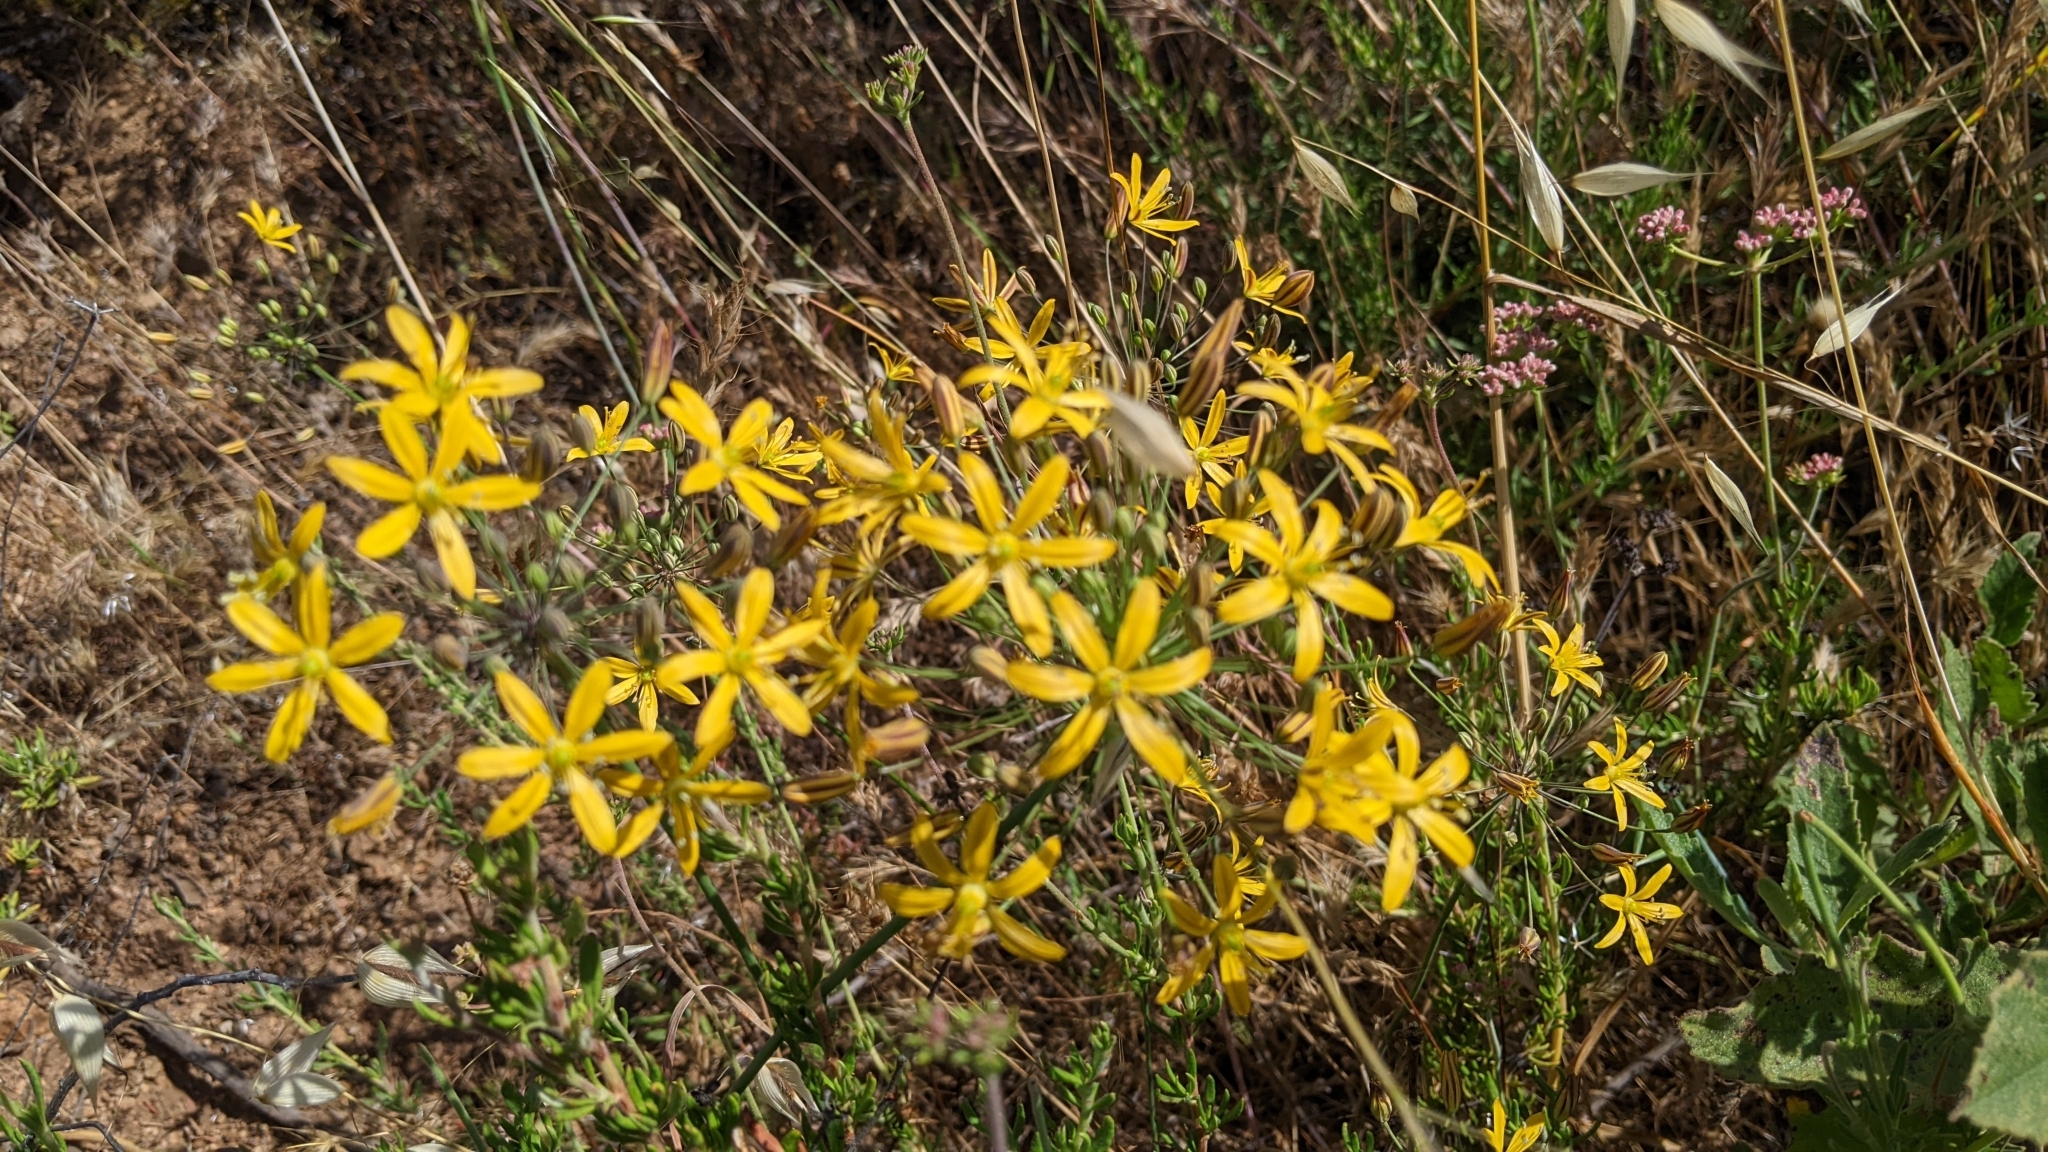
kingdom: Plantae
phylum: Tracheophyta
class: Liliopsida
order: Asparagales
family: Asparagaceae
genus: Bloomeria
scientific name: Bloomeria crocea
